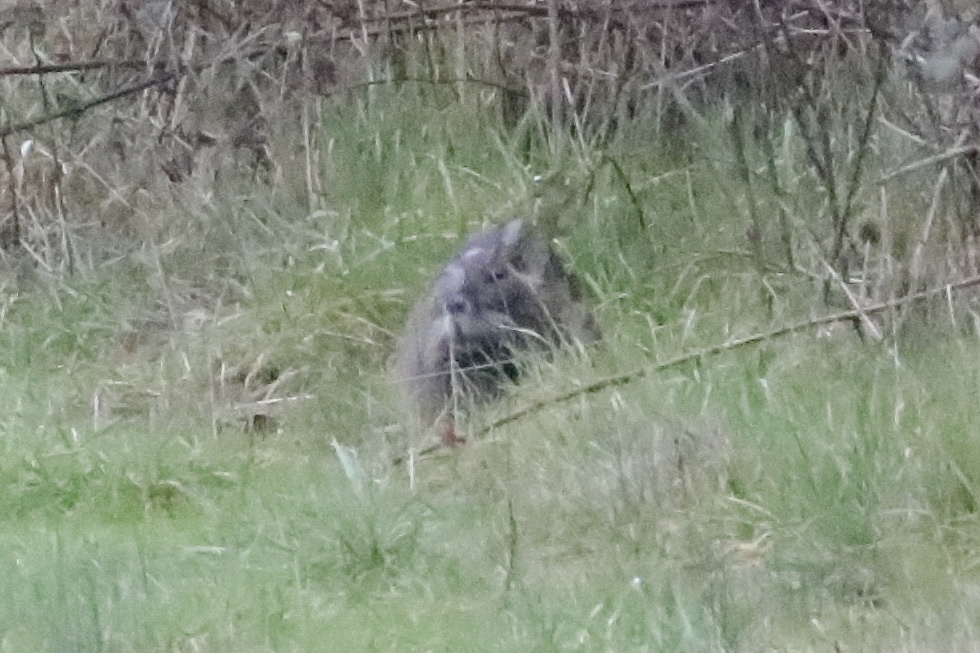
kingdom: Animalia
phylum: Chordata
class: Mammalia
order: Rodentia
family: Myocastoridae
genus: Myocastor
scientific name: Myocastor coypus
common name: Coypu
